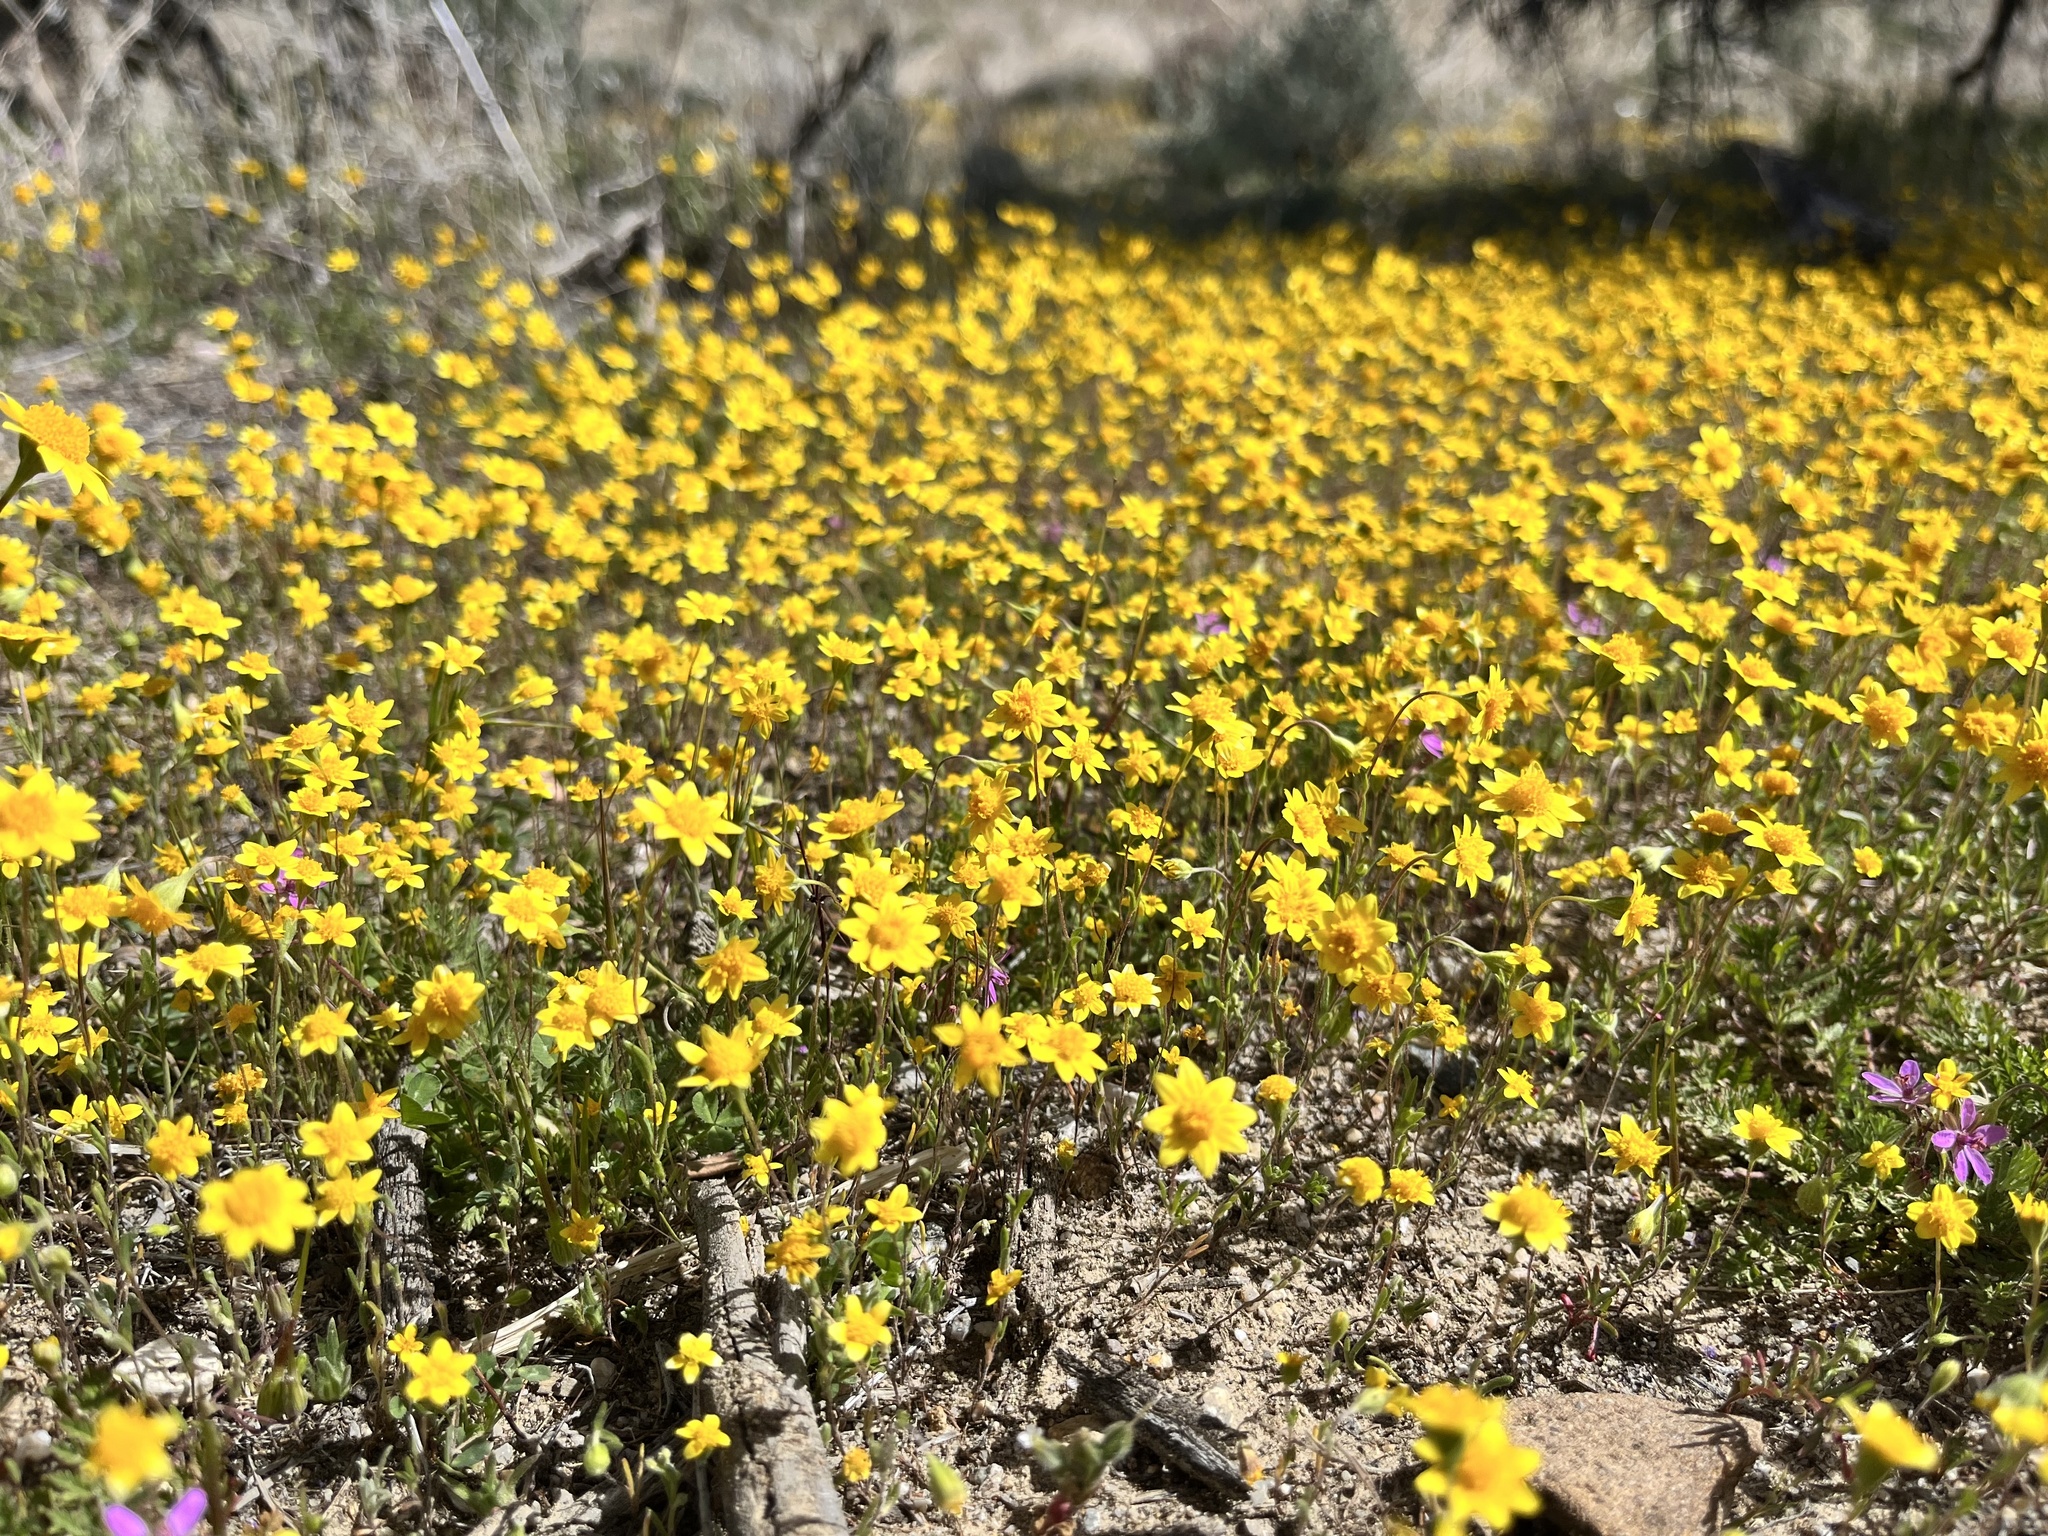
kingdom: Plantae
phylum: Tracheophyta
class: Magnoliopsida
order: Asterales
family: Asteraceae
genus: Lasthenia
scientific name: Lasthenia gracilis
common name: Common goldfields
